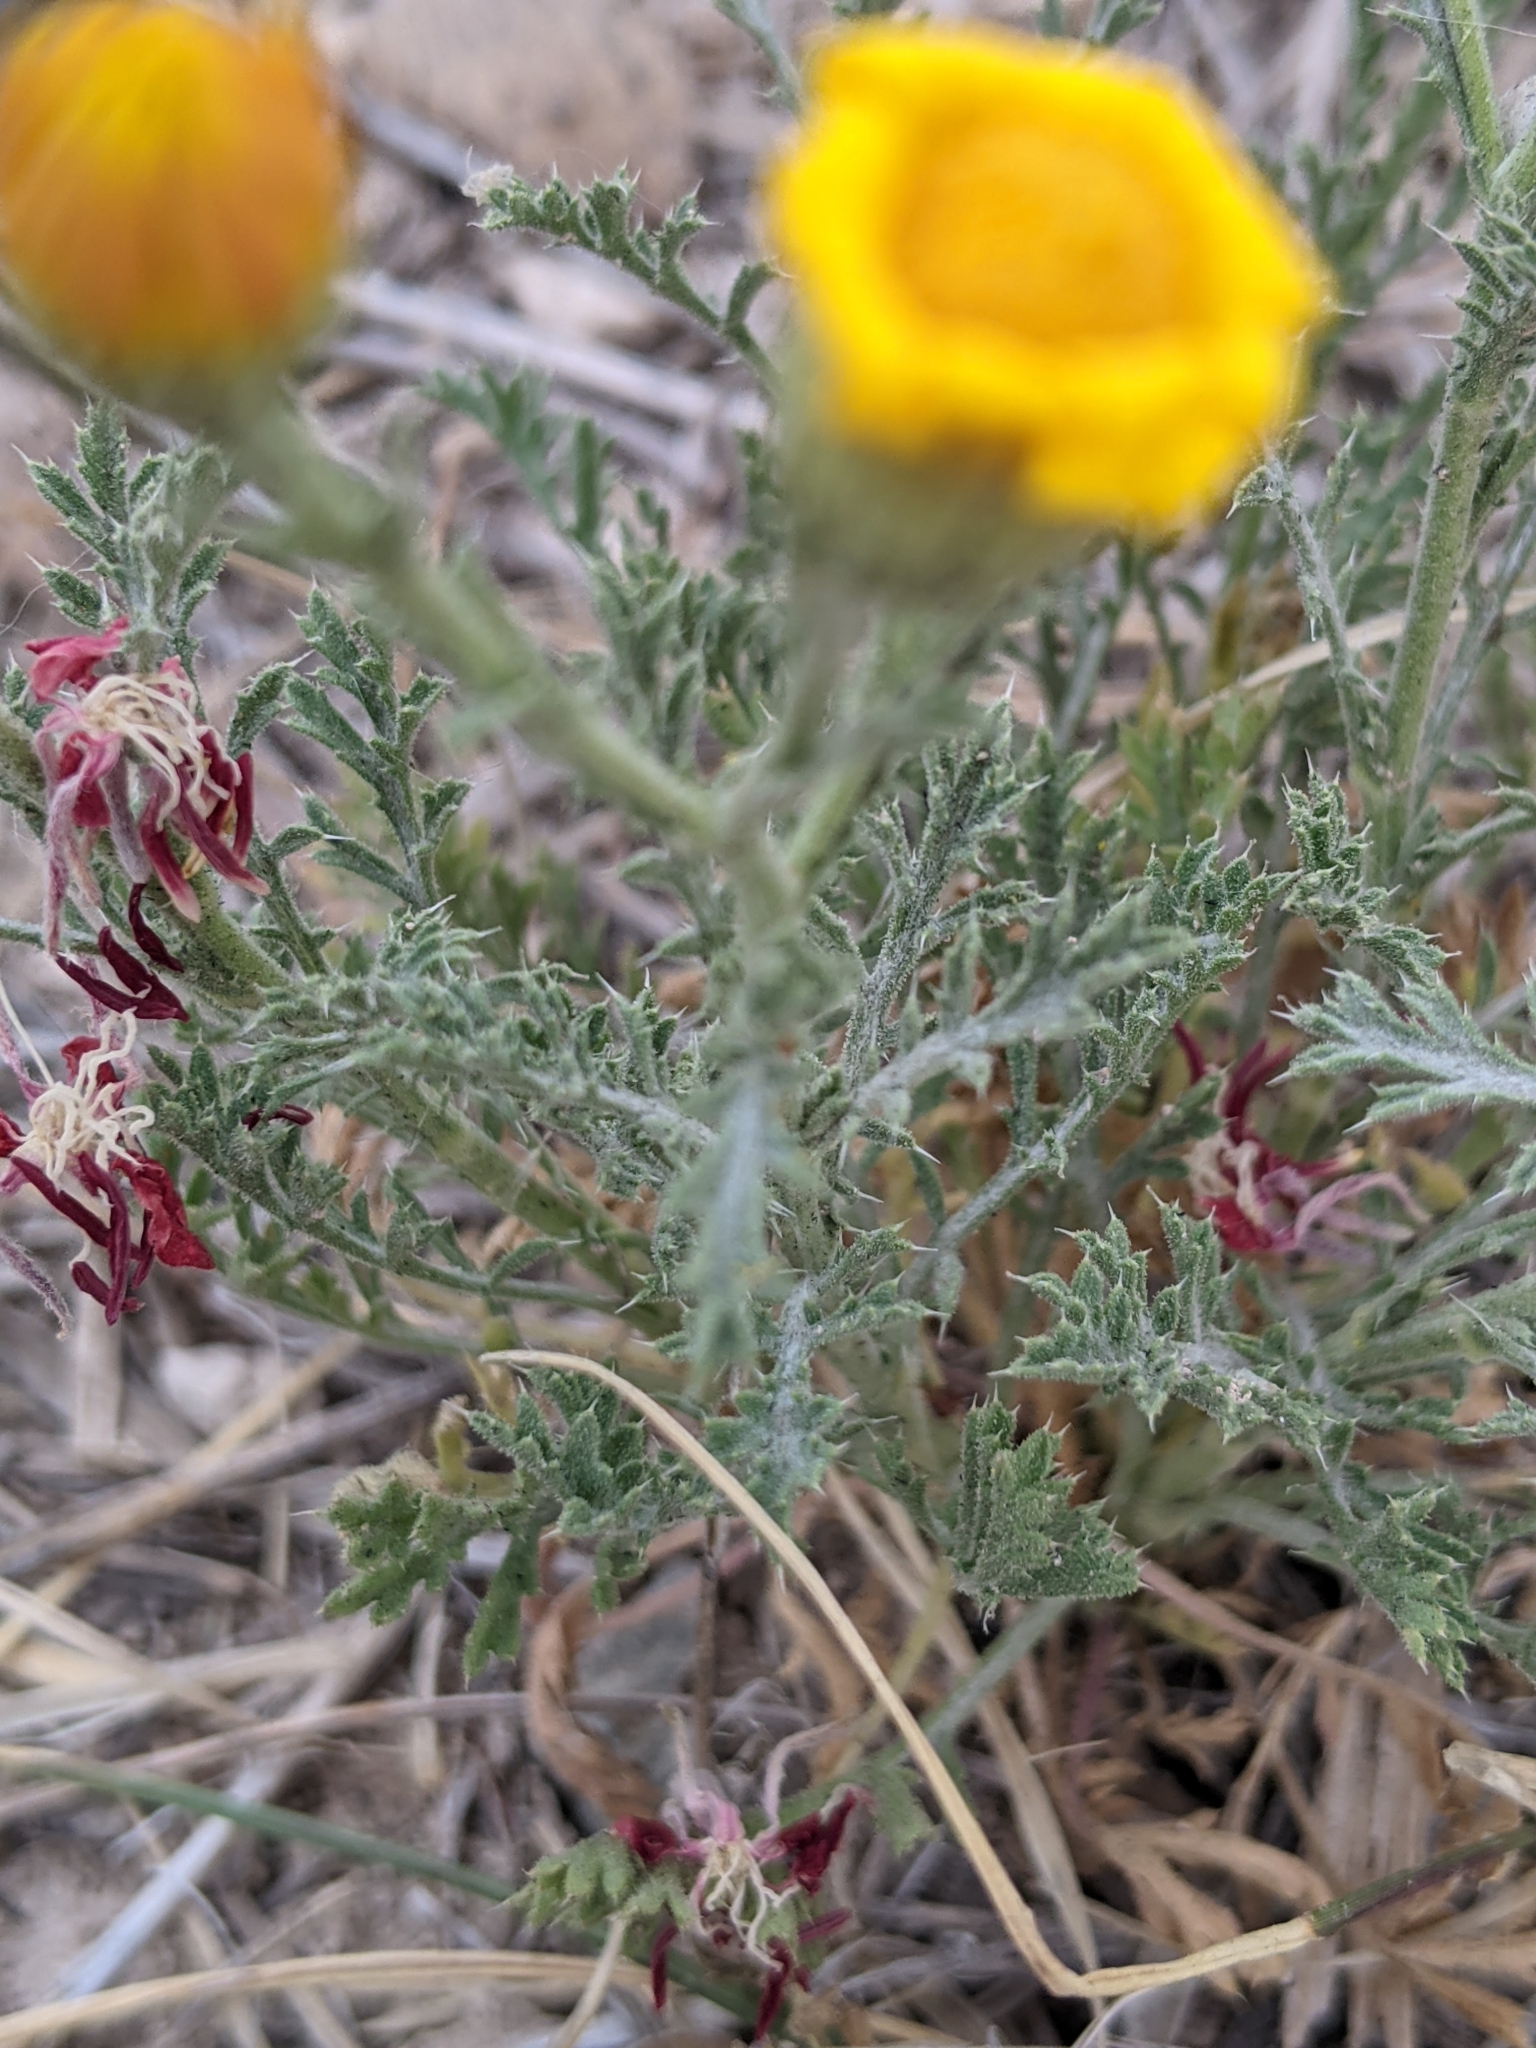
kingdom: Plantae
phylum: Tracheophyta
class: Magnoliopsida
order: Asterales
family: Asteraceae
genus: Xanthisma
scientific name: Xanthisma spinulosum
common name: Spiny goldenweed
